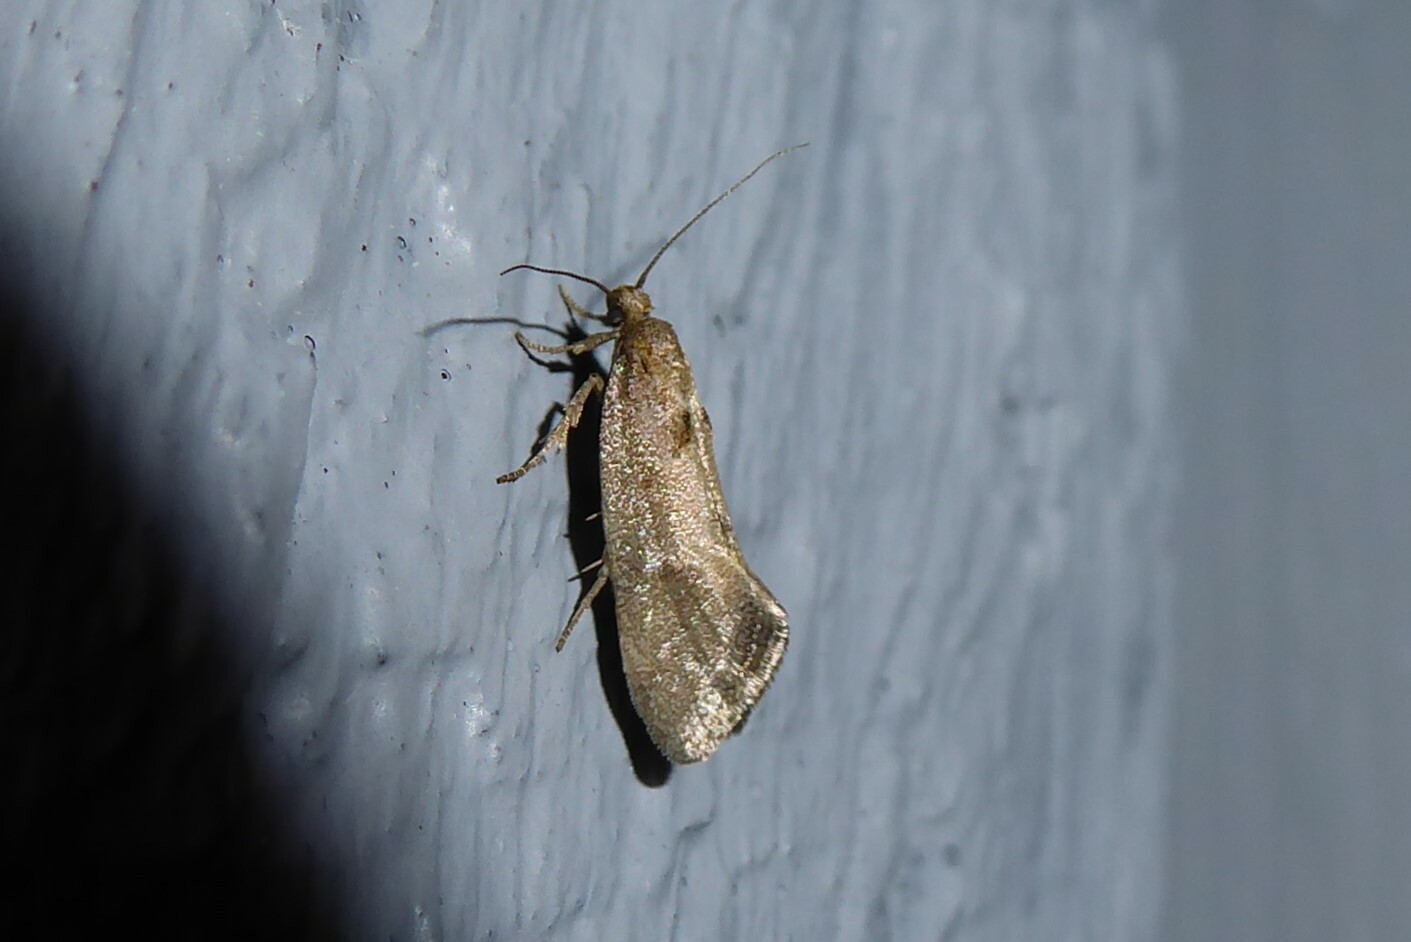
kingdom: Animalia
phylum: Arthropoda
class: Insecta
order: Lepidoptera
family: Oecophoridae
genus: Tingena
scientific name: Tingena brachyacma
